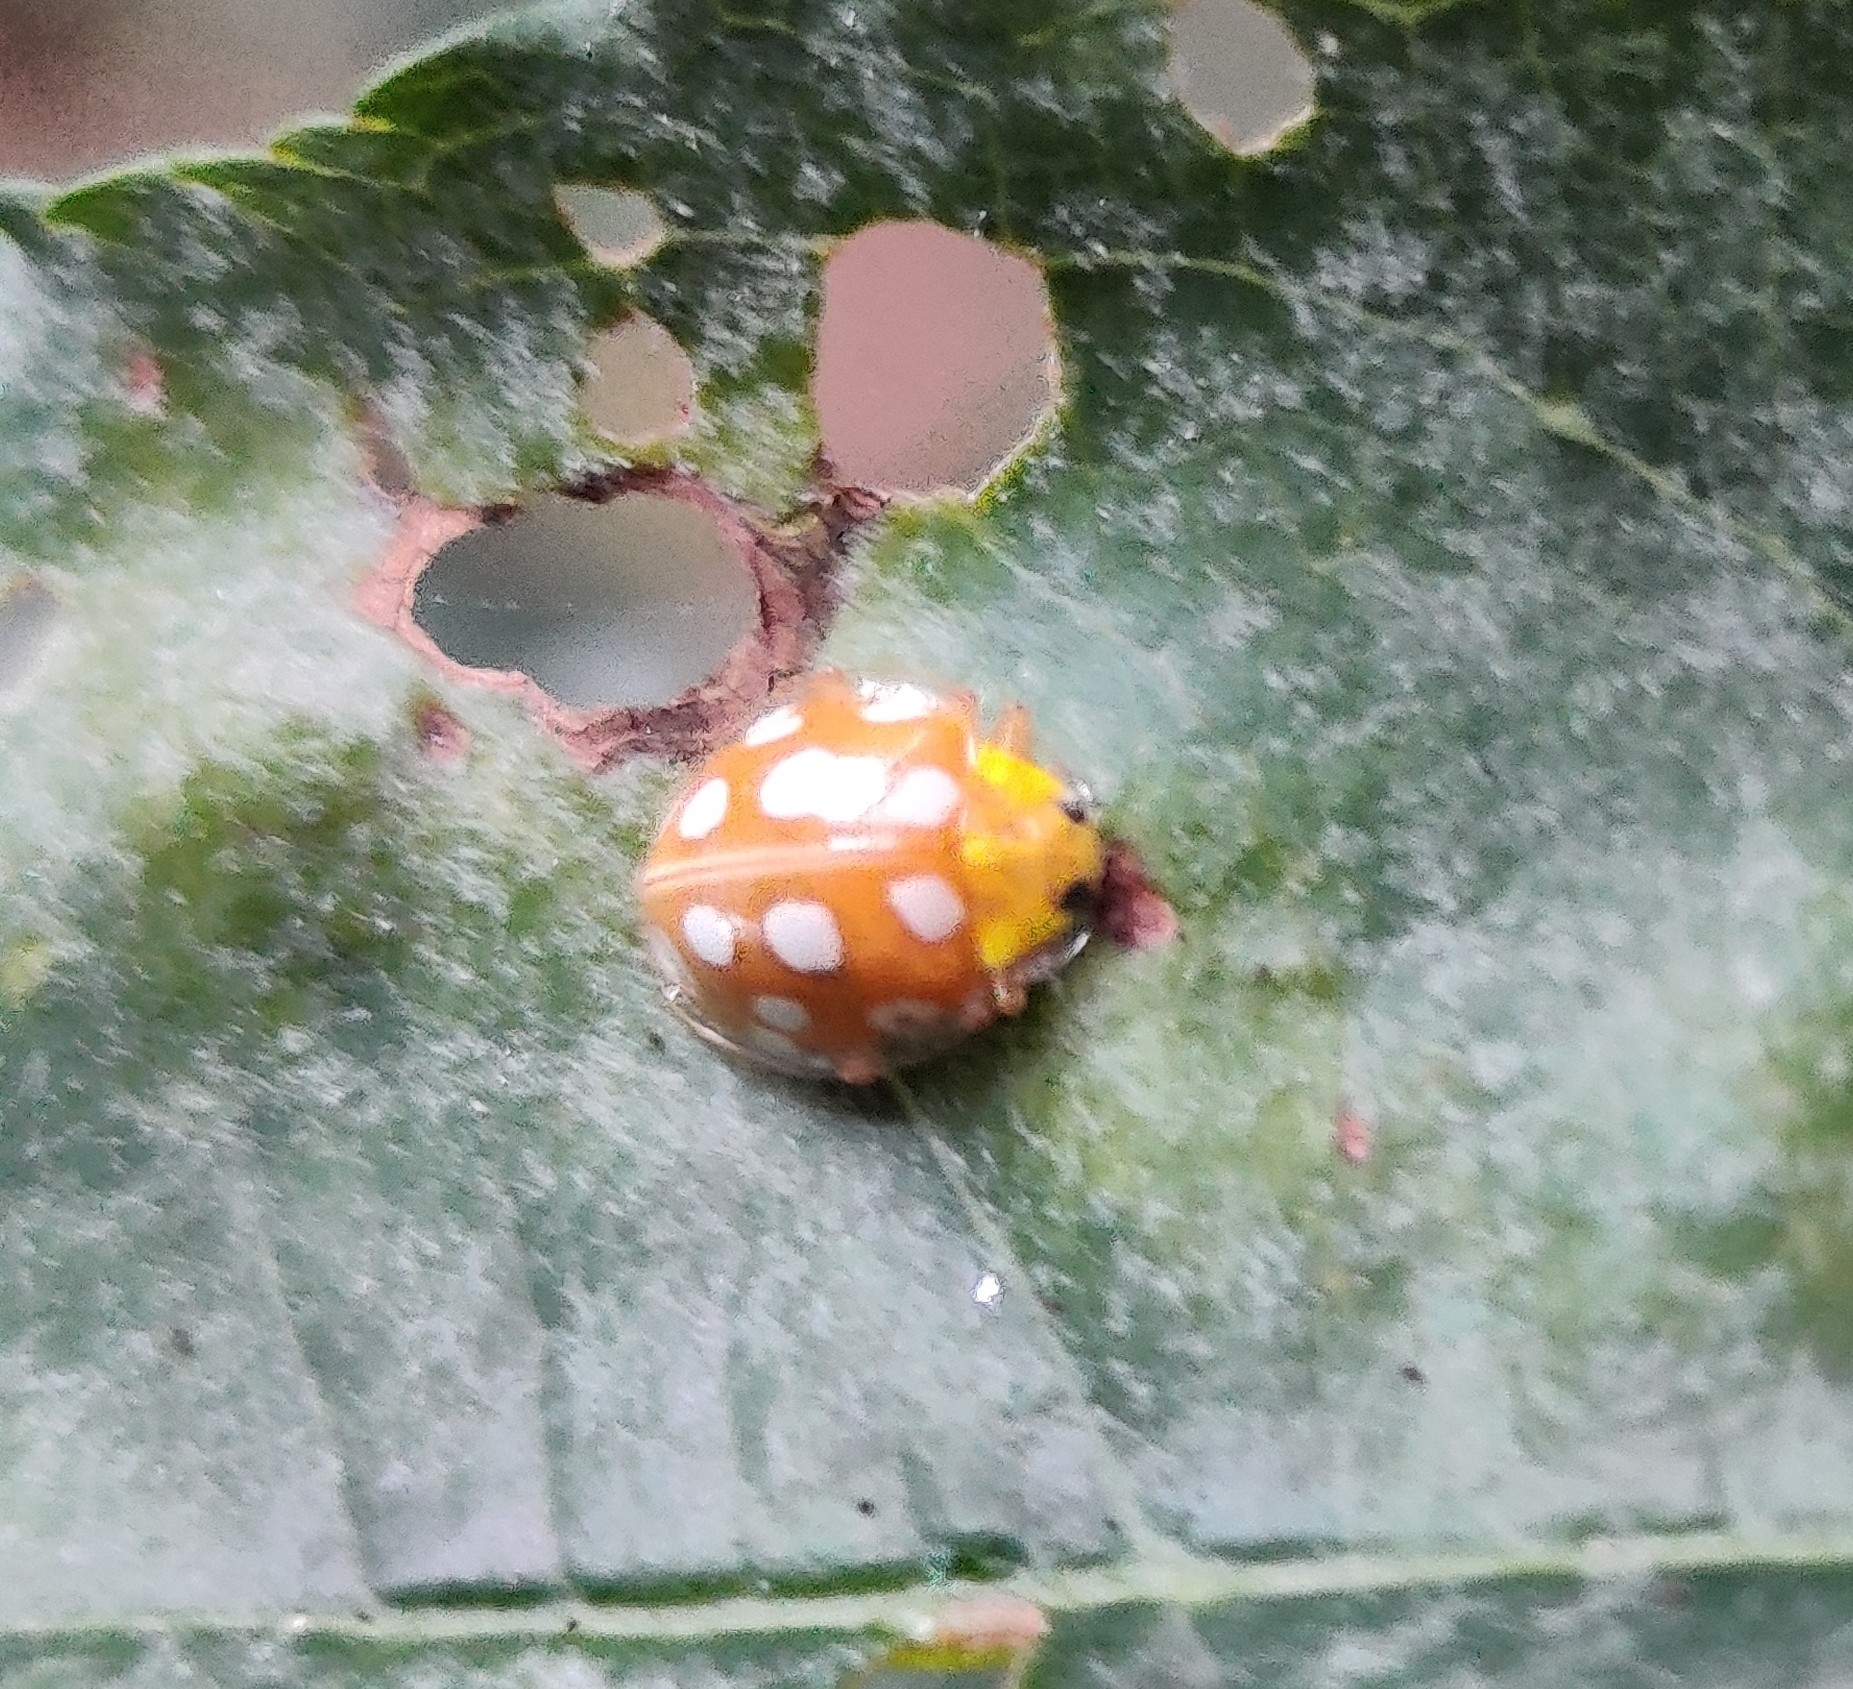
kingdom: Animalia
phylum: Arthropoda
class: Insecta
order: Coleoptera
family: Coccinellidae
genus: Halyzia
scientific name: Halyzia sedecimguttata
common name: Orange ladybird
